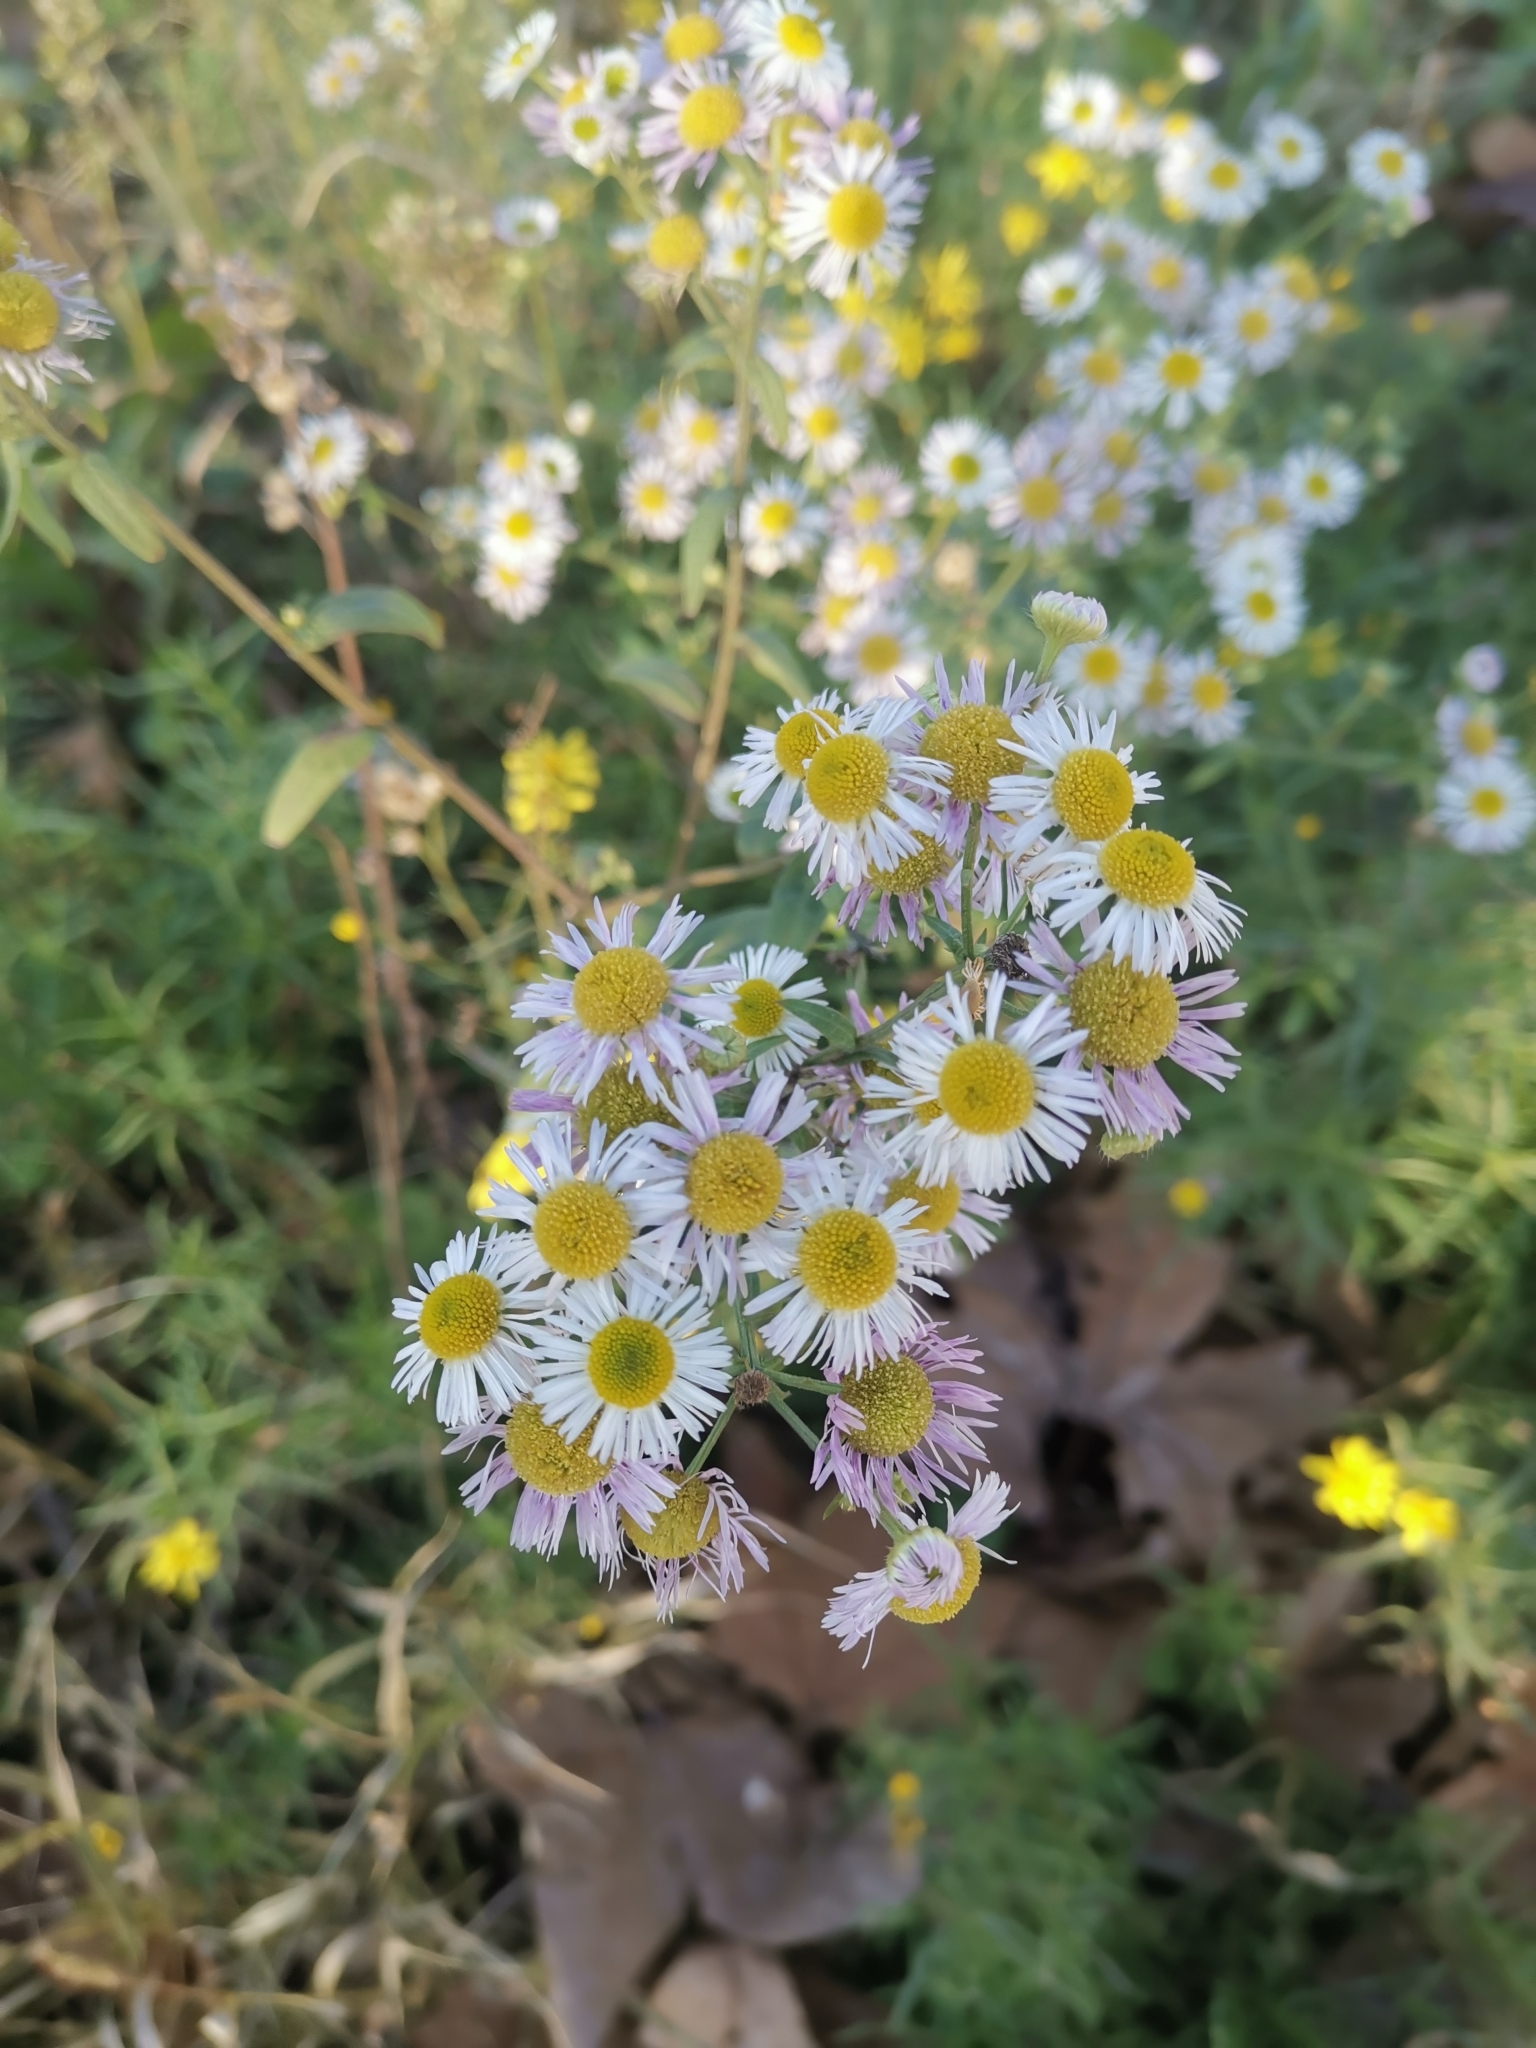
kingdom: Plantae
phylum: Tracheophyta
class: Magnoliopsida
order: Asterales
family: Asteraceae
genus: Erigeron
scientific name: Erigeron annuus
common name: Tall fleabane
